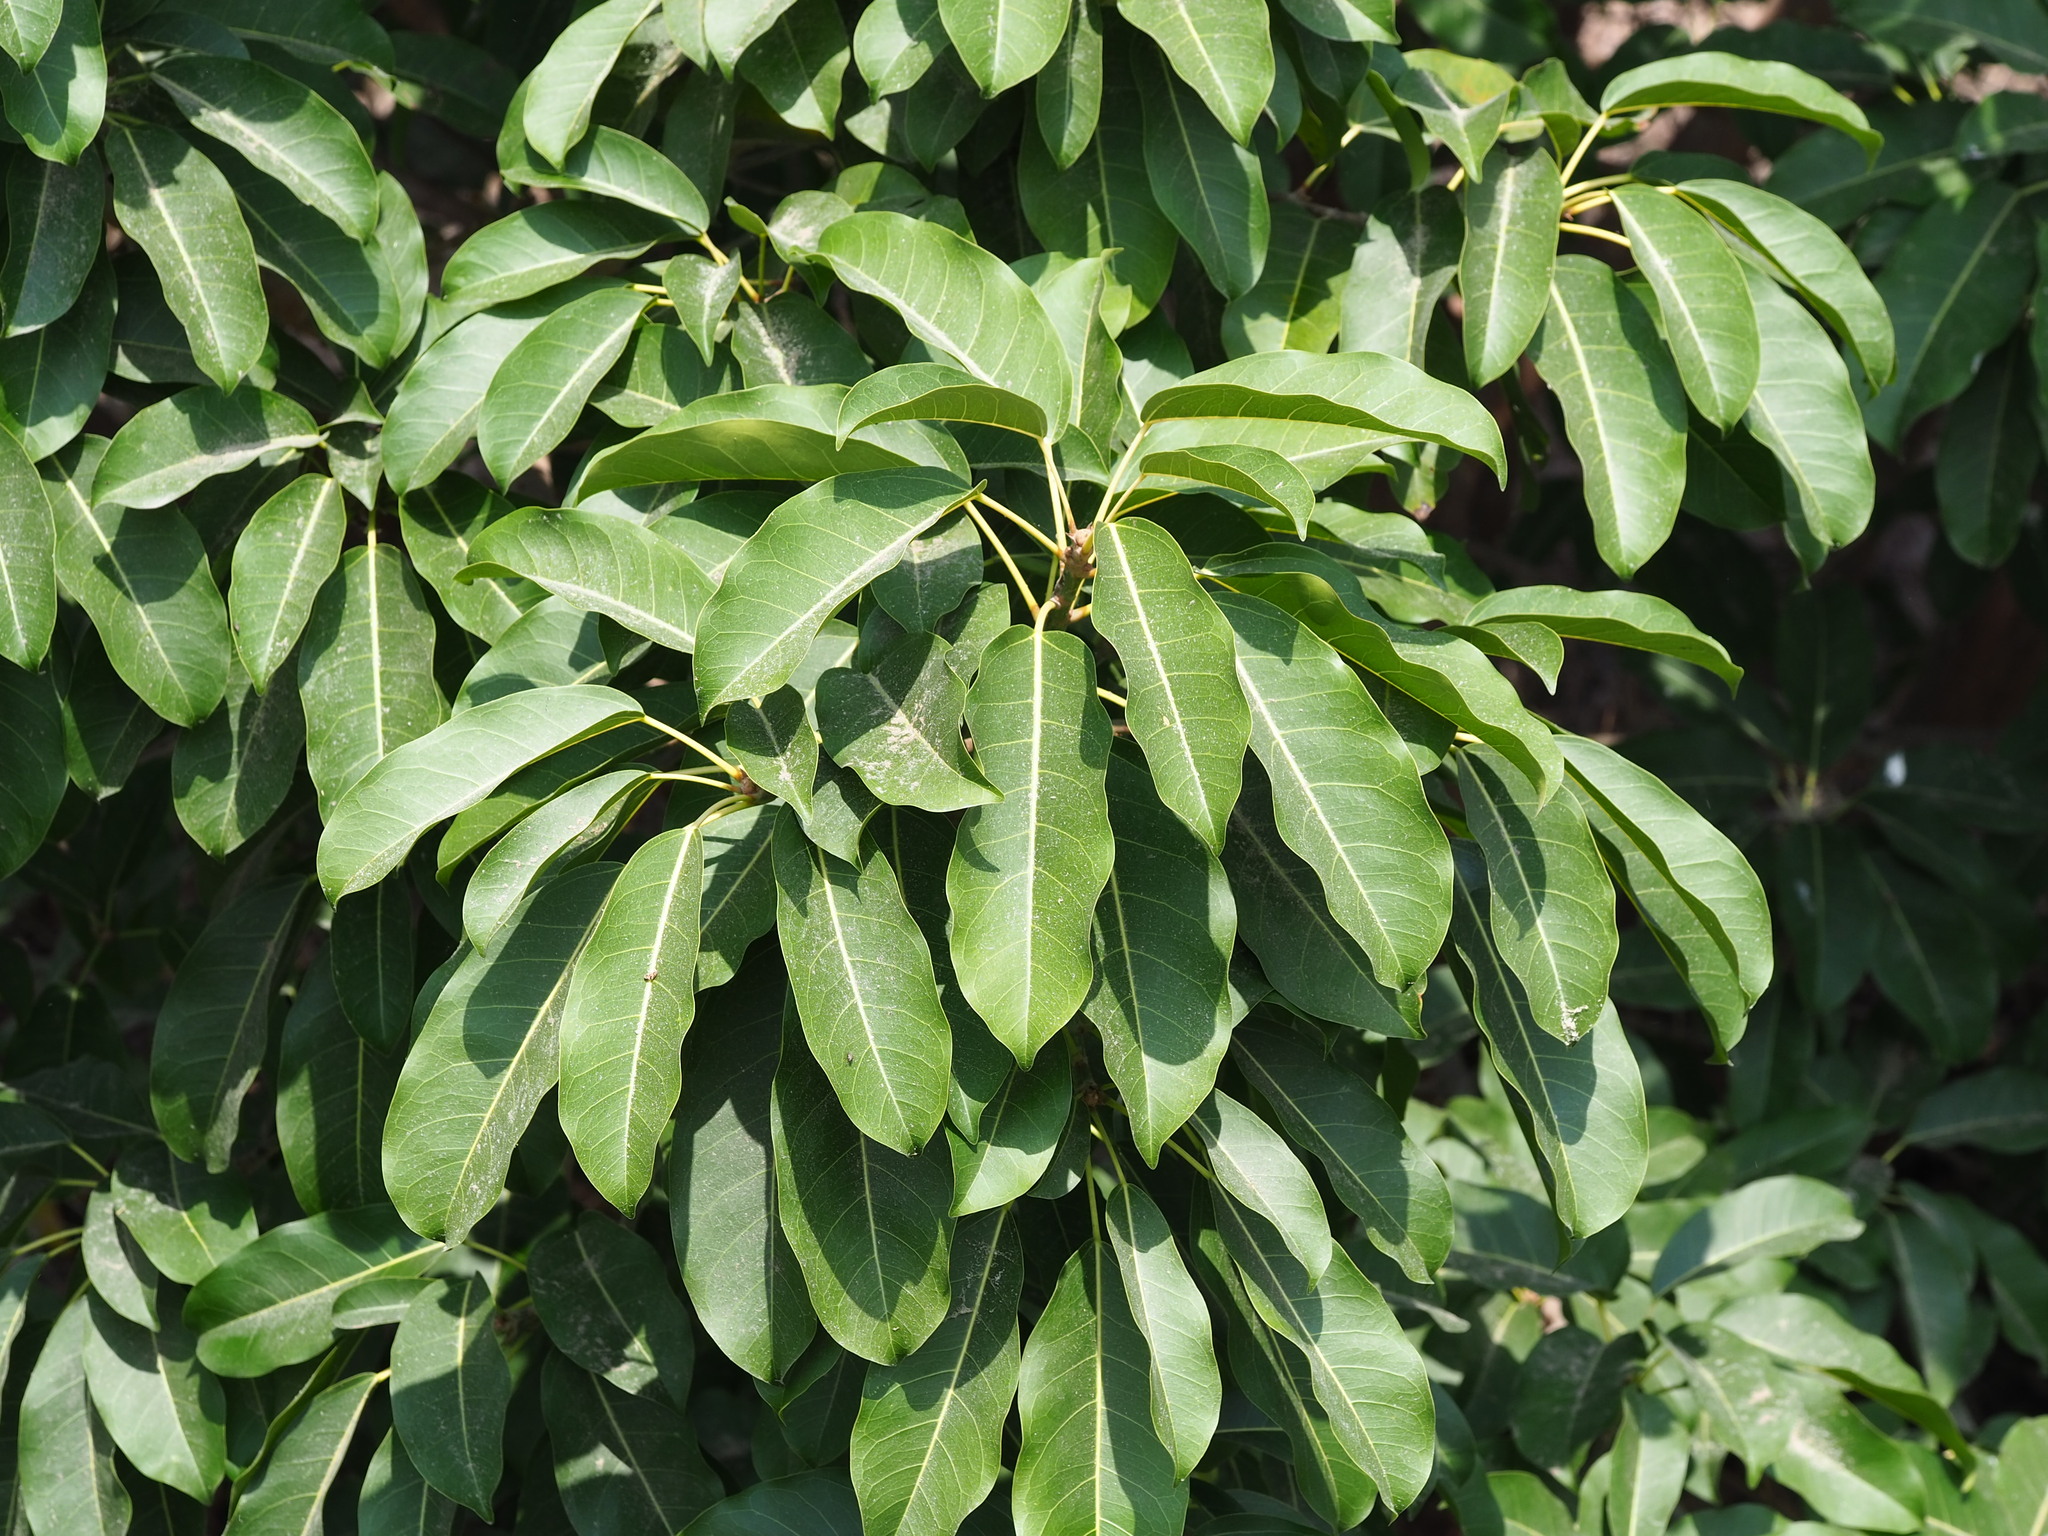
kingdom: Plantae
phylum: Tracheophyta
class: Magnoliopsida
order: Rosales
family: Moraceae
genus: Ficus
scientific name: Ficus subpisocarpa
